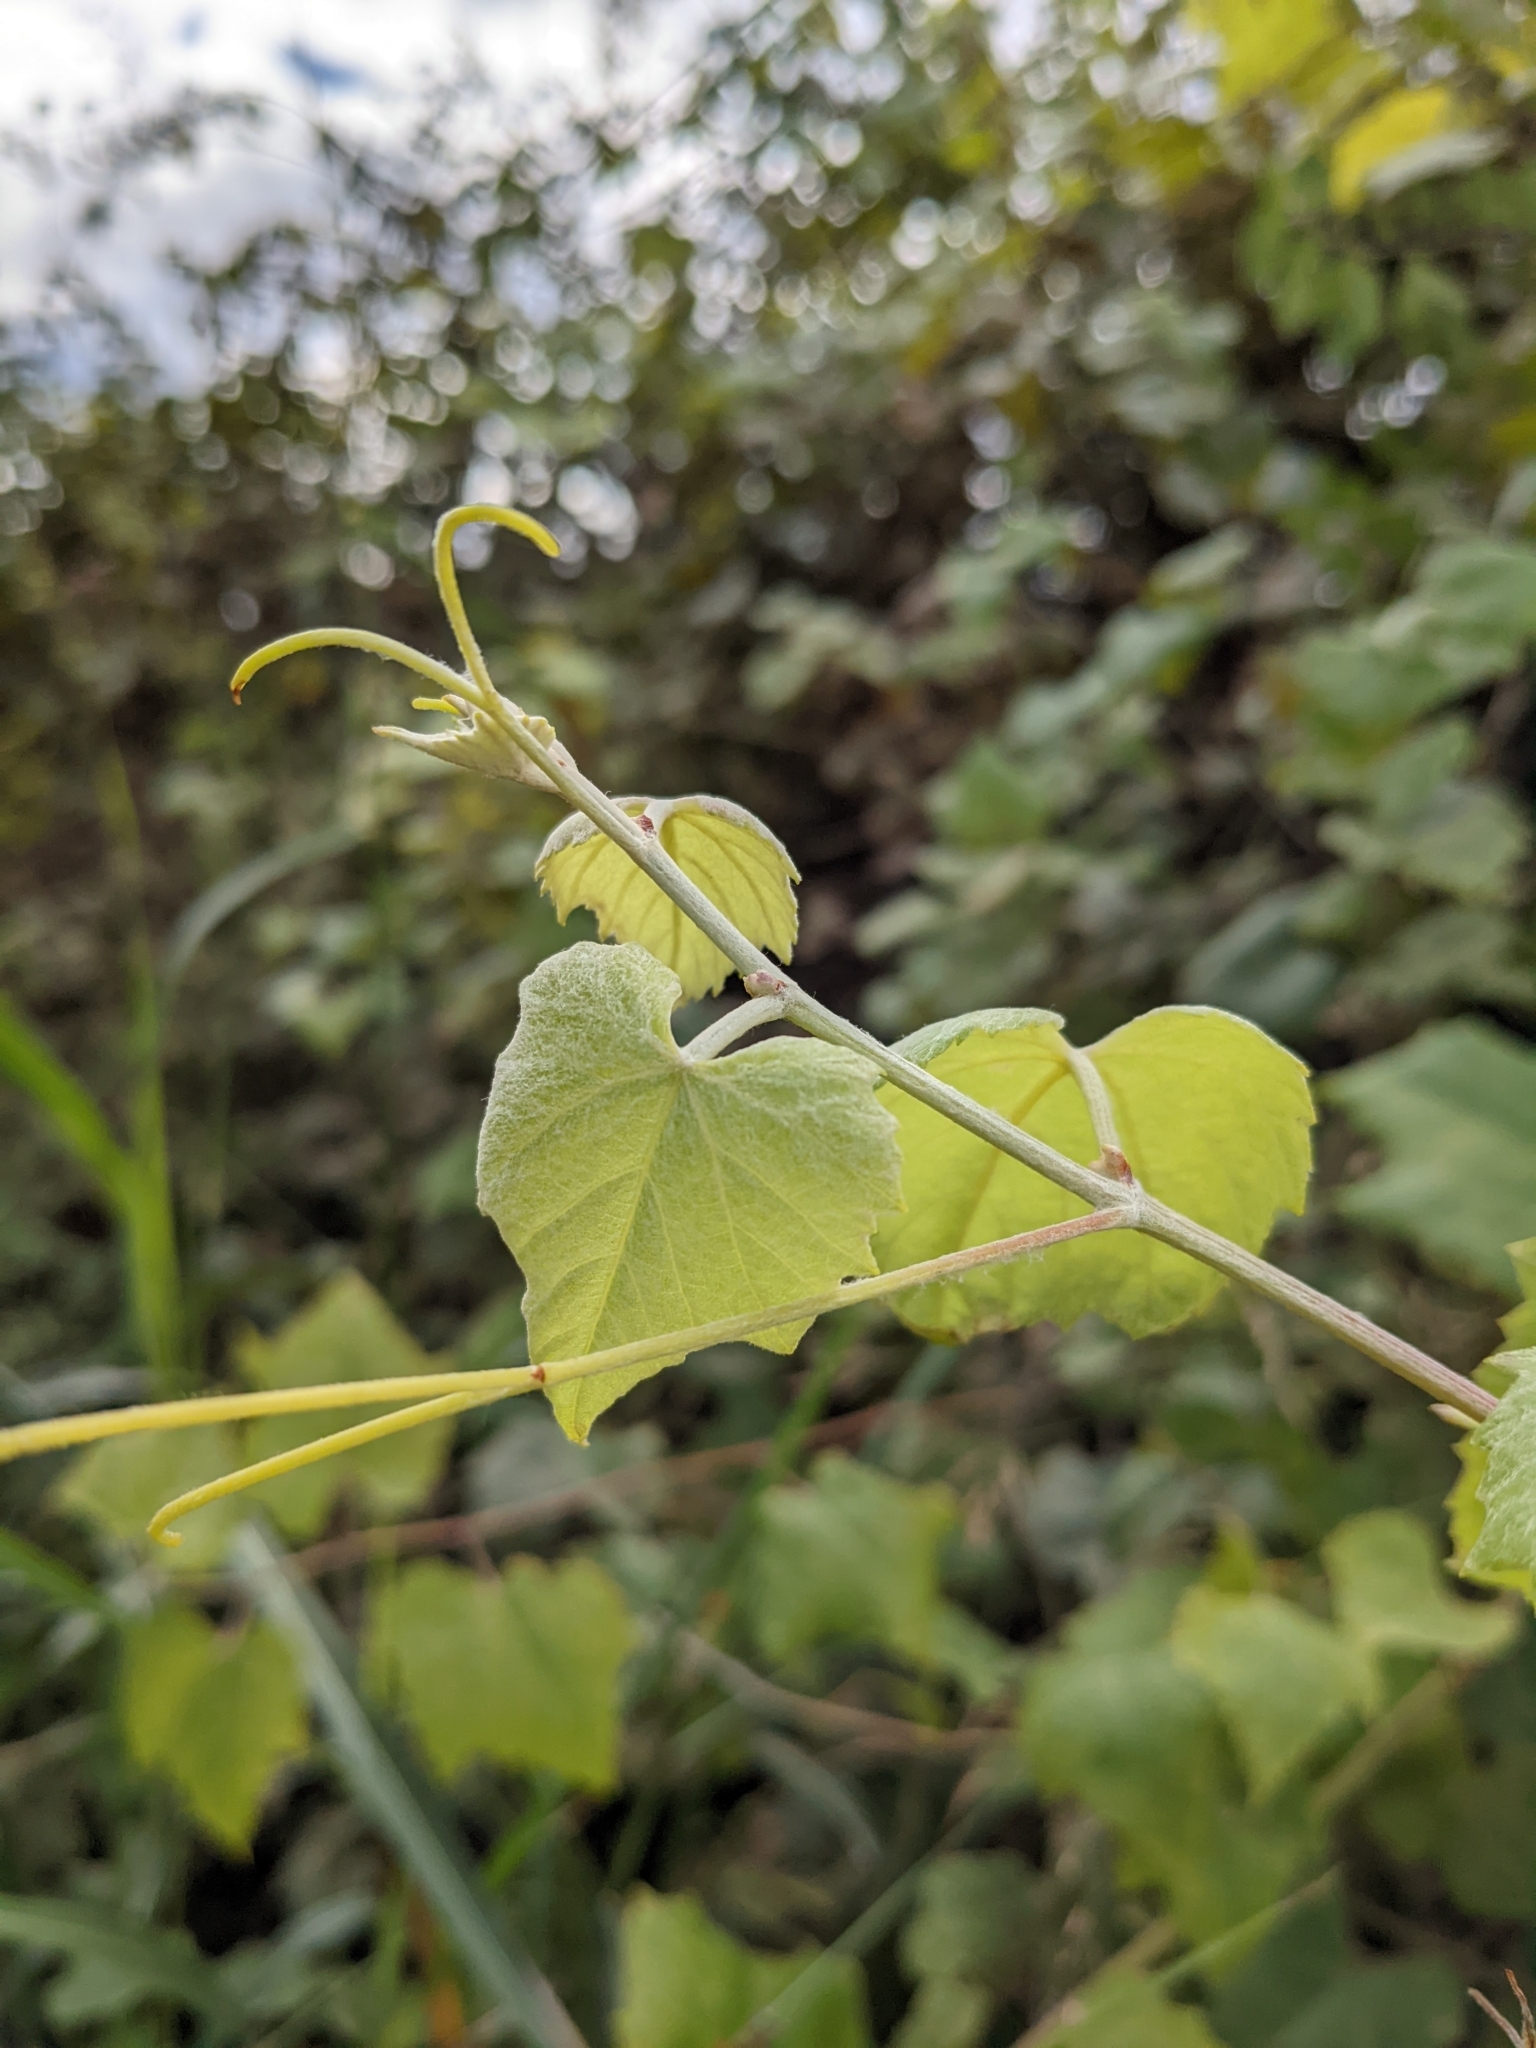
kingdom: Plantae
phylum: Tracheophyta
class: Magnoliopsida
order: Vitales
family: Vitaceae
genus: Vitis
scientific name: Vitis arizonica
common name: Canyon grape
